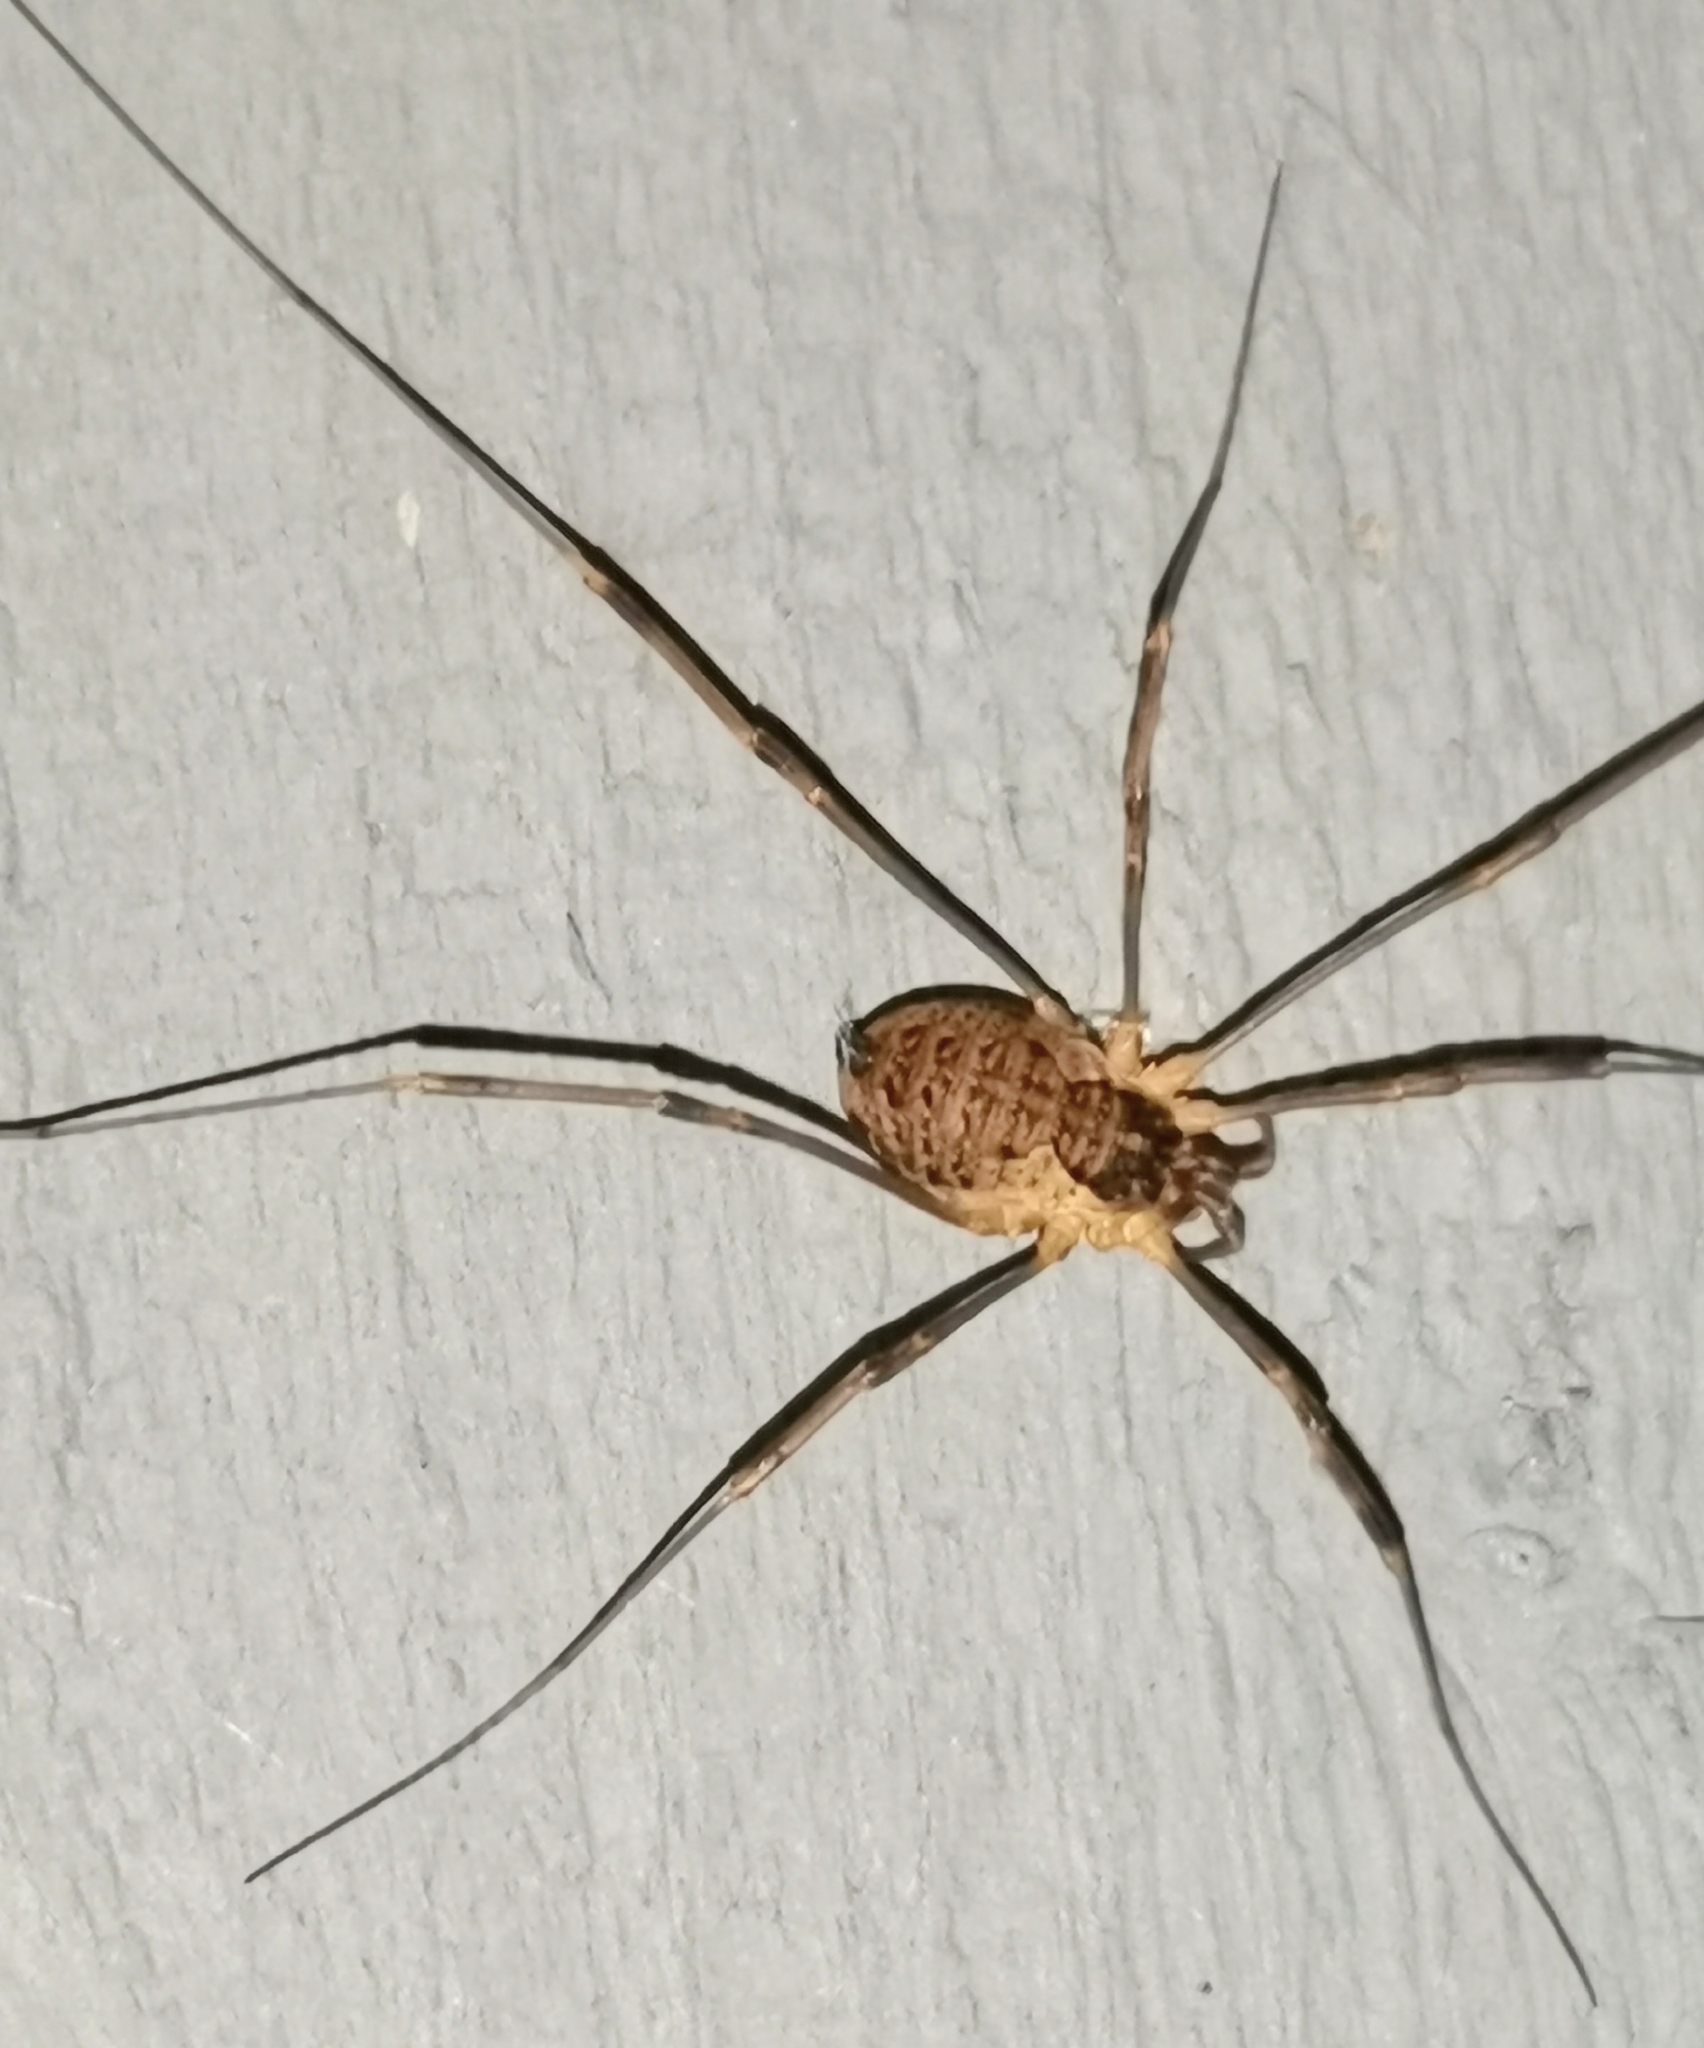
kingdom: Animalia
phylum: Arthropoda
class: Arachnida
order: Opiliones
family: Phalangiidae
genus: Mitopus
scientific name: Mitopus morio
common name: Saddleback harvestman
